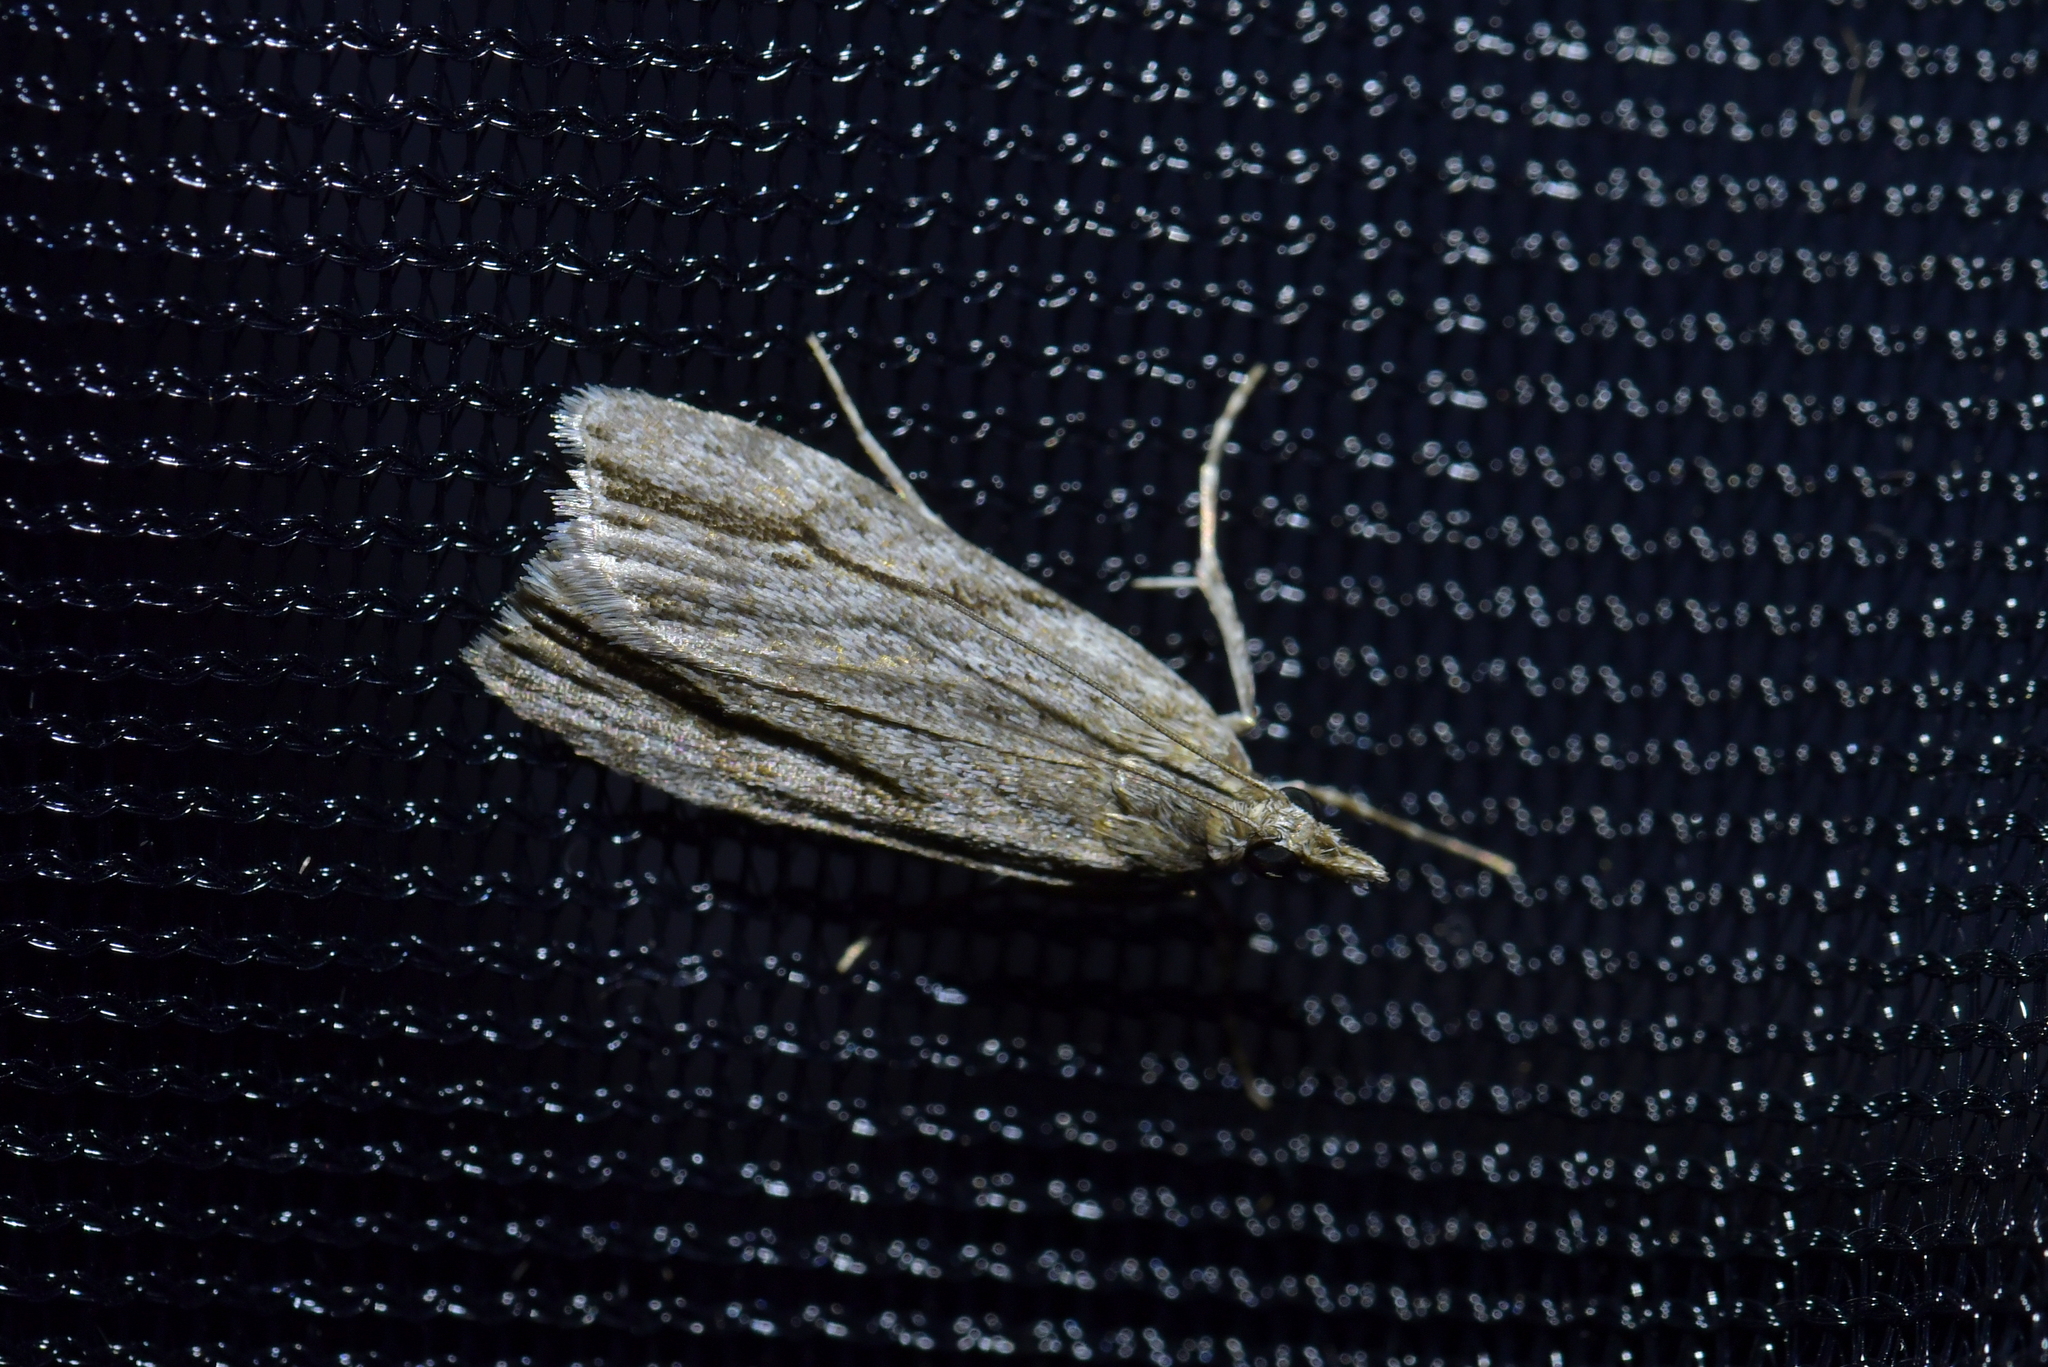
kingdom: Animalia
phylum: Arthropoda
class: Insecta
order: Lepidoptera
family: Crambidae
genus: Eudonia
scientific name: Eudonia bisinualis
